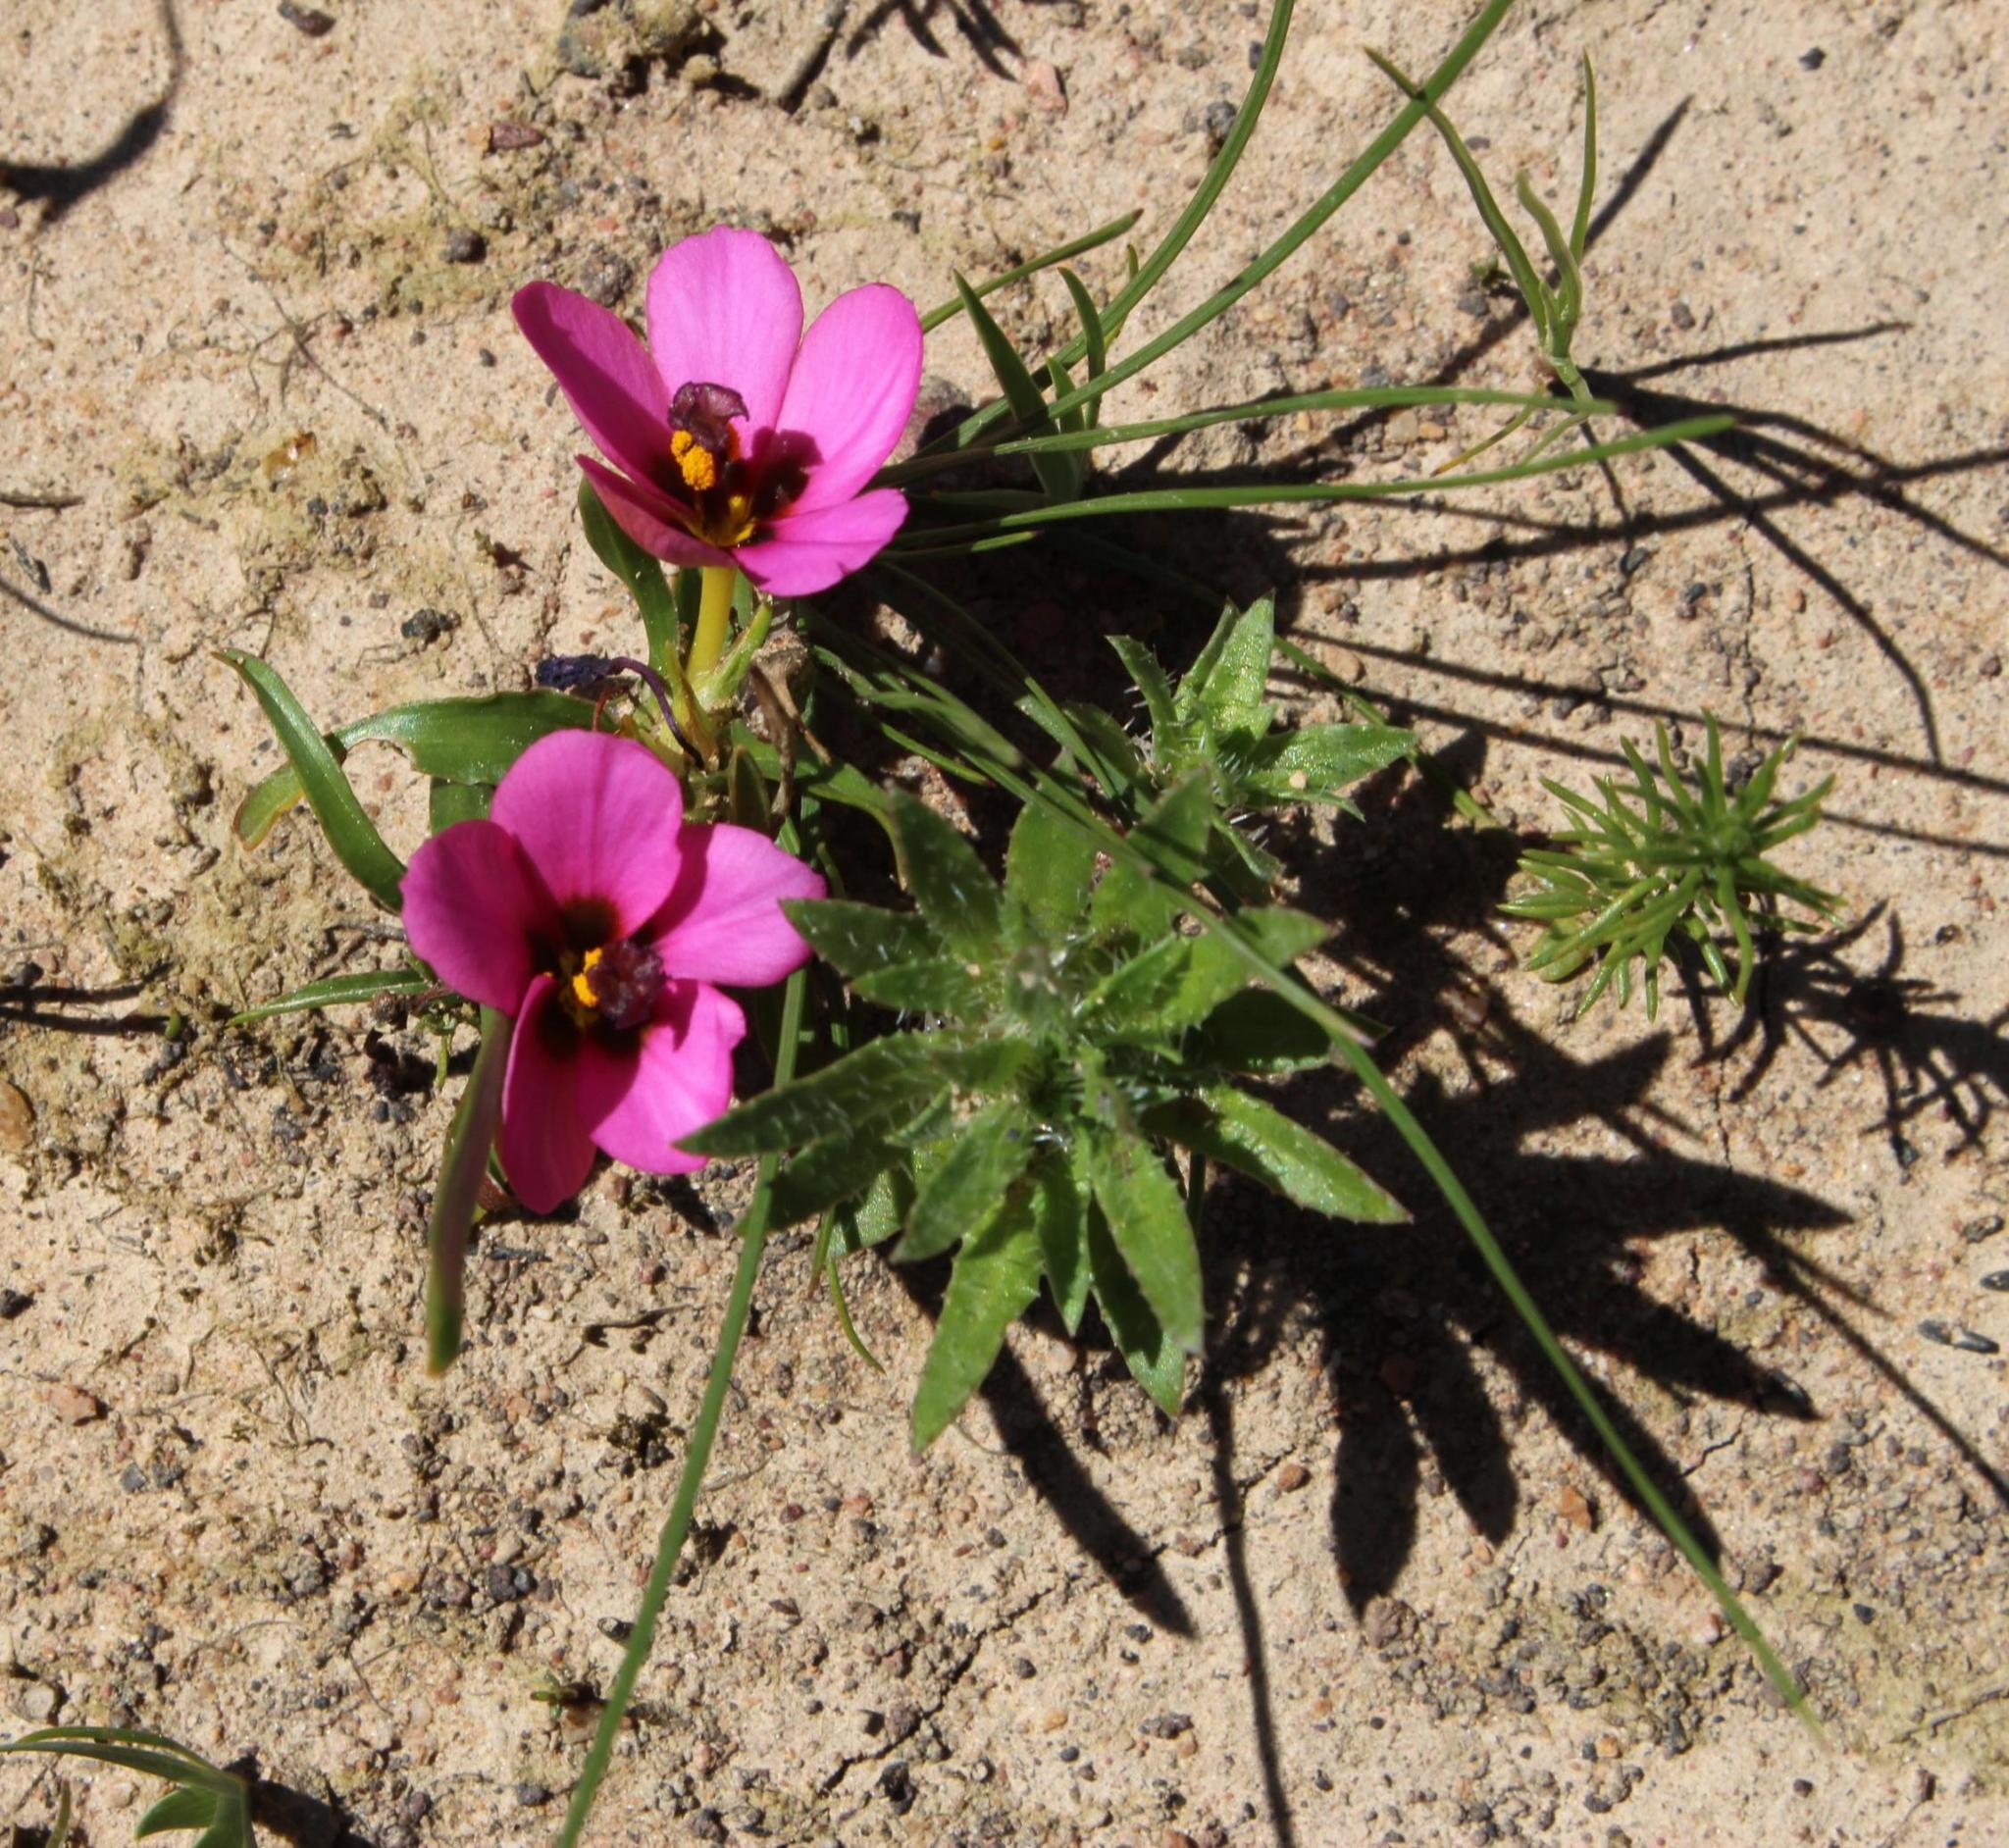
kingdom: Plantae
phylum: Tracheophyta
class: Liliopsida
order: Asparagales
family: Iridaceae
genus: Moraea
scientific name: Moraea versicolor
